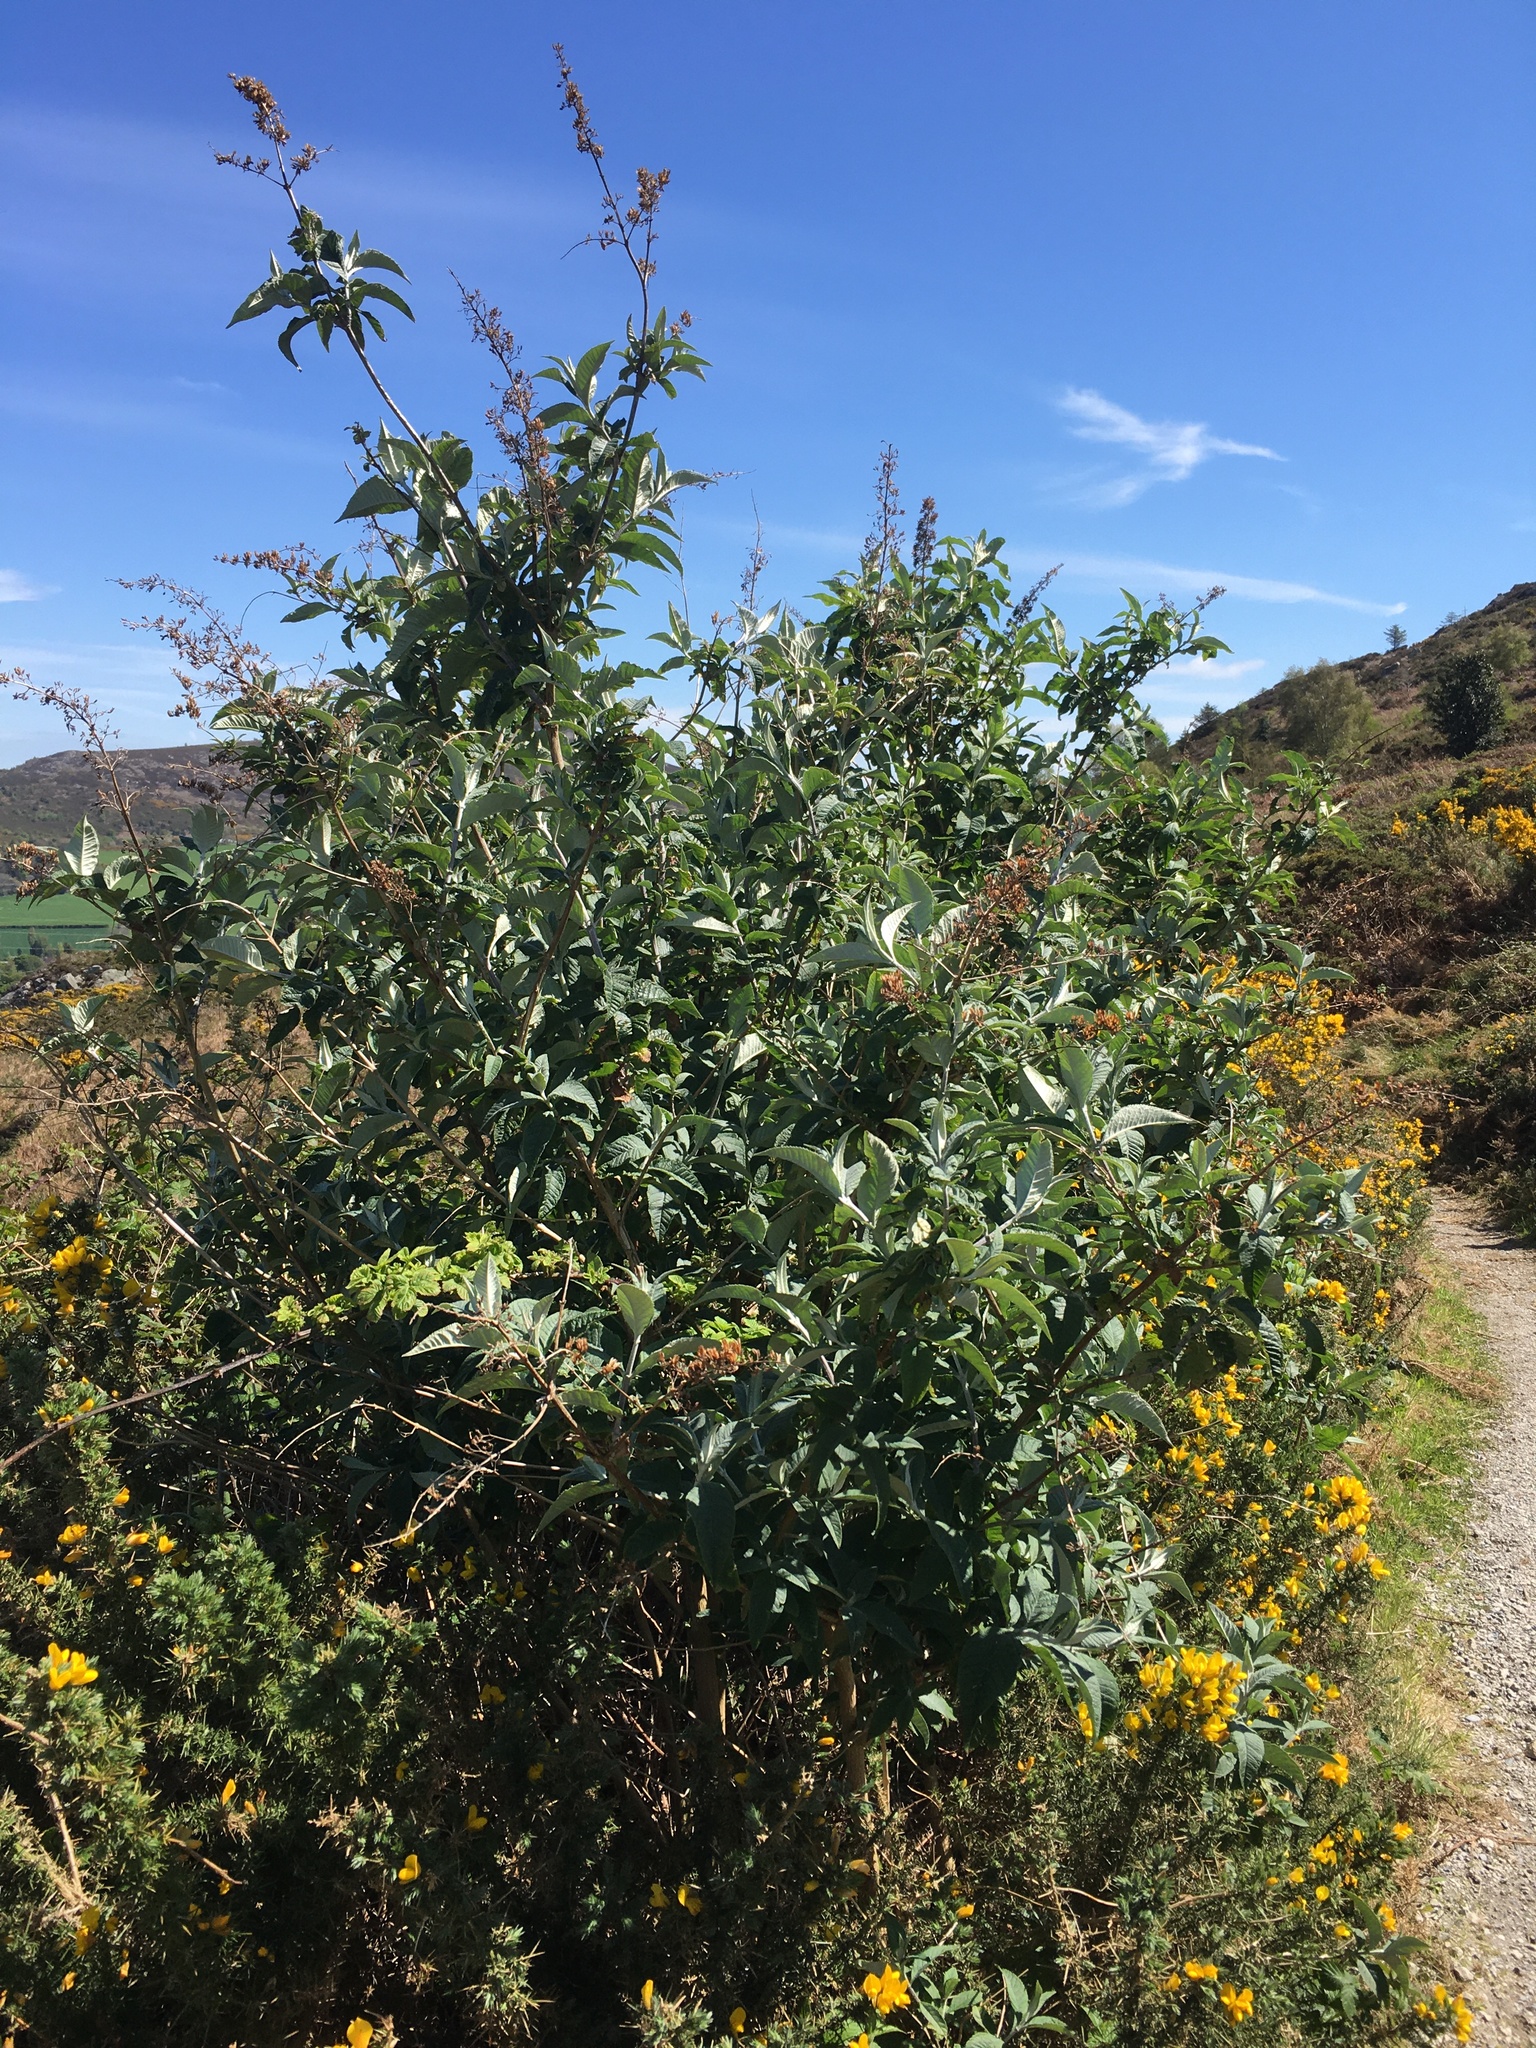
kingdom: Plantae
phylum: Tracheophyta
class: Magnoliopsida
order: Lamiales
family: Scrophulariaceae
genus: Buddleja
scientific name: Buddleja davidii
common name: Butterfly-bush
